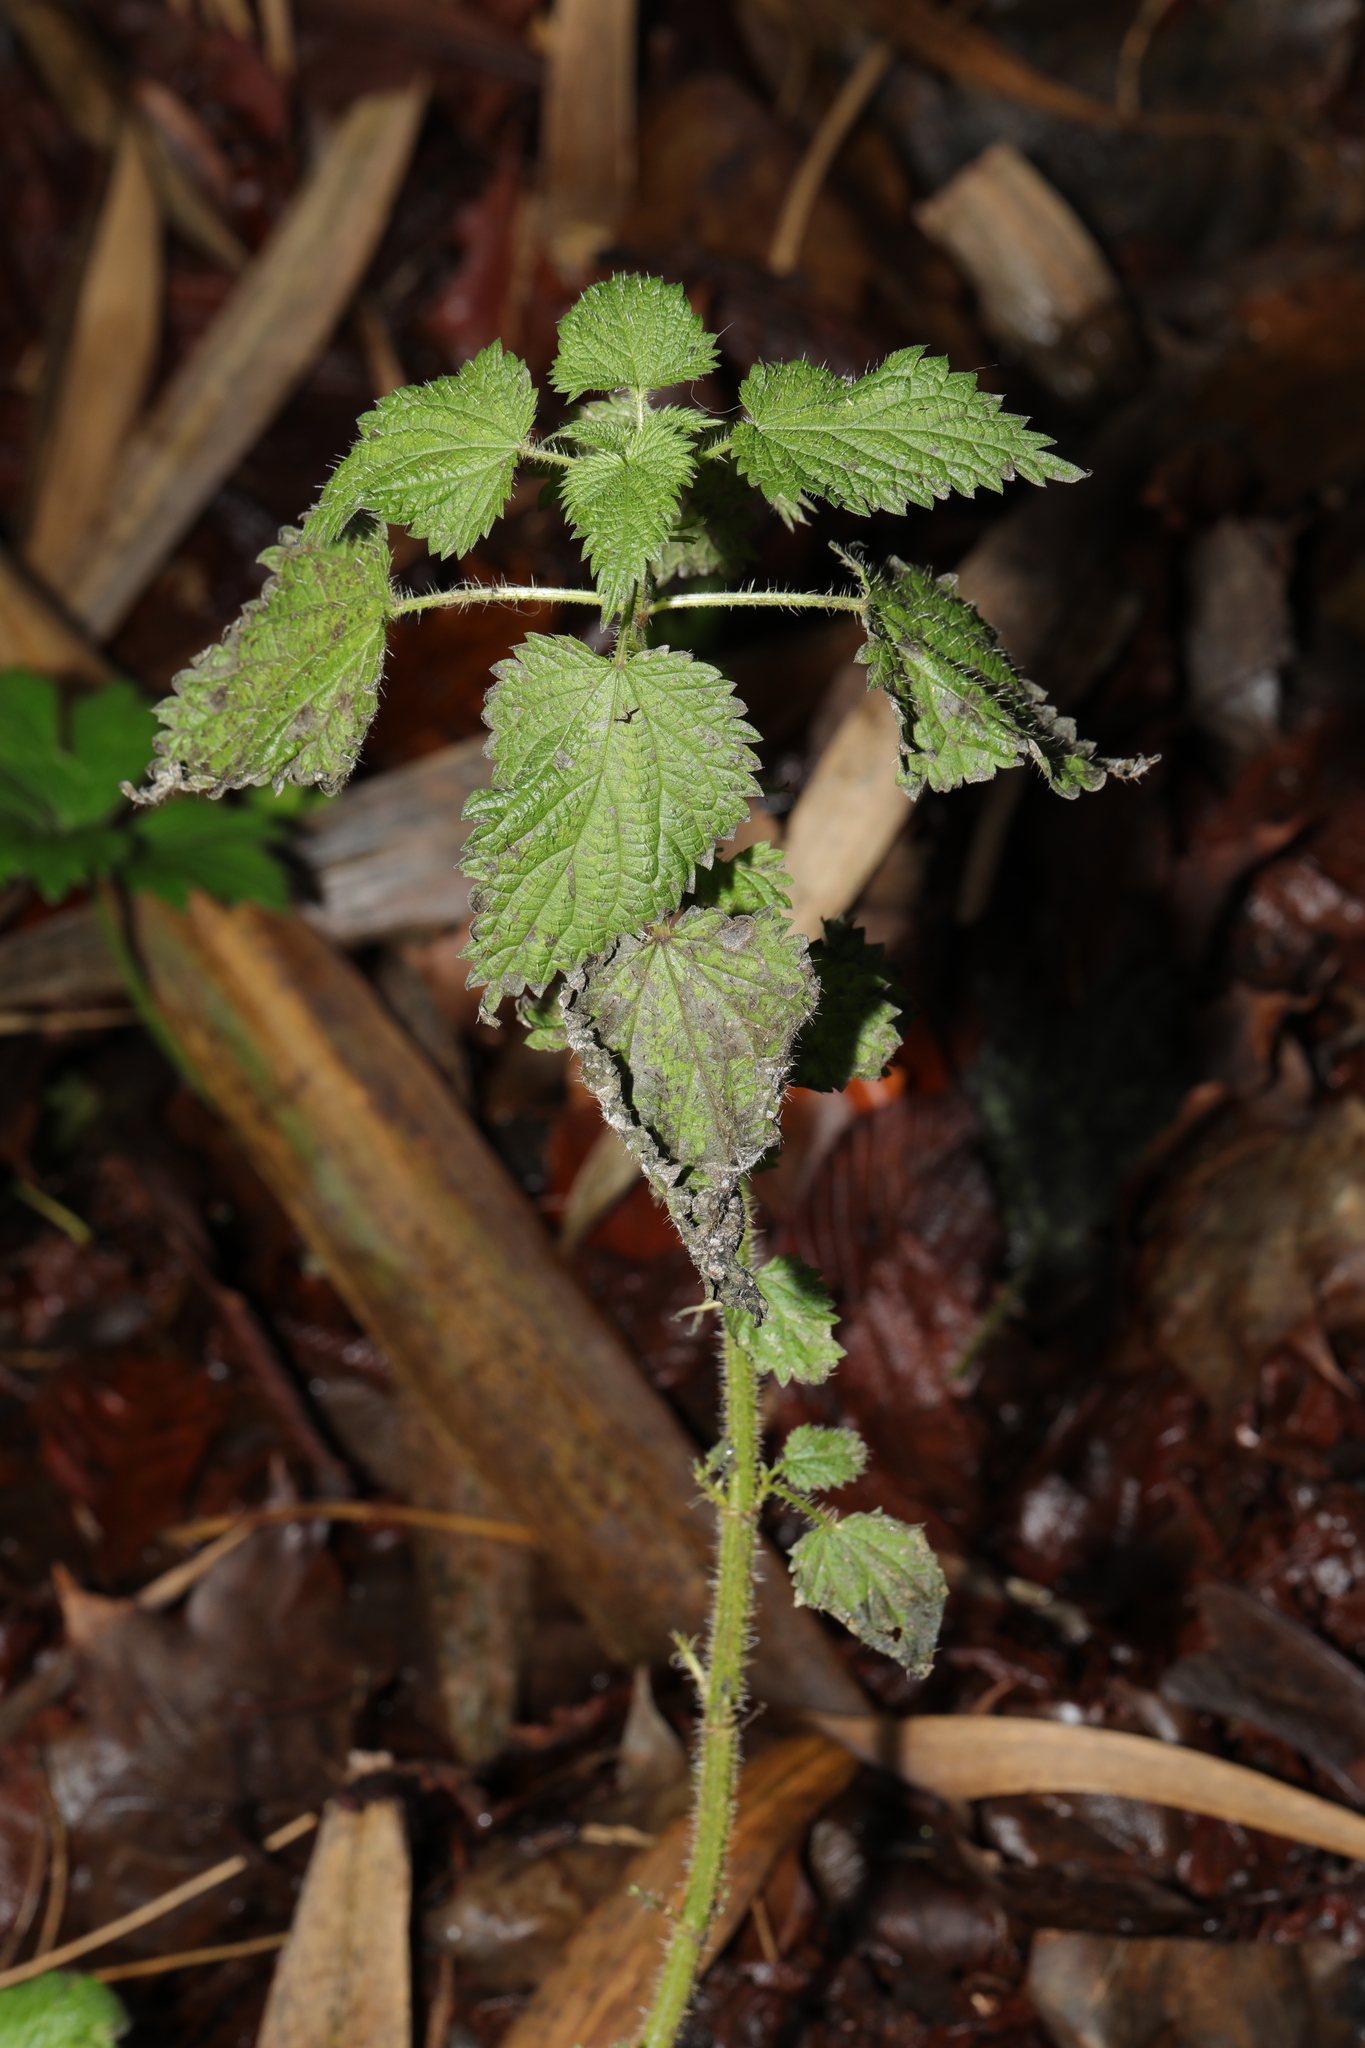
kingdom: Plantae
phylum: Tracheophyta
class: Magnoliopsida
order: Rosales
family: Urticaceae
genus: Urtica
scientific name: Urtica dioica
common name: Common nettle
